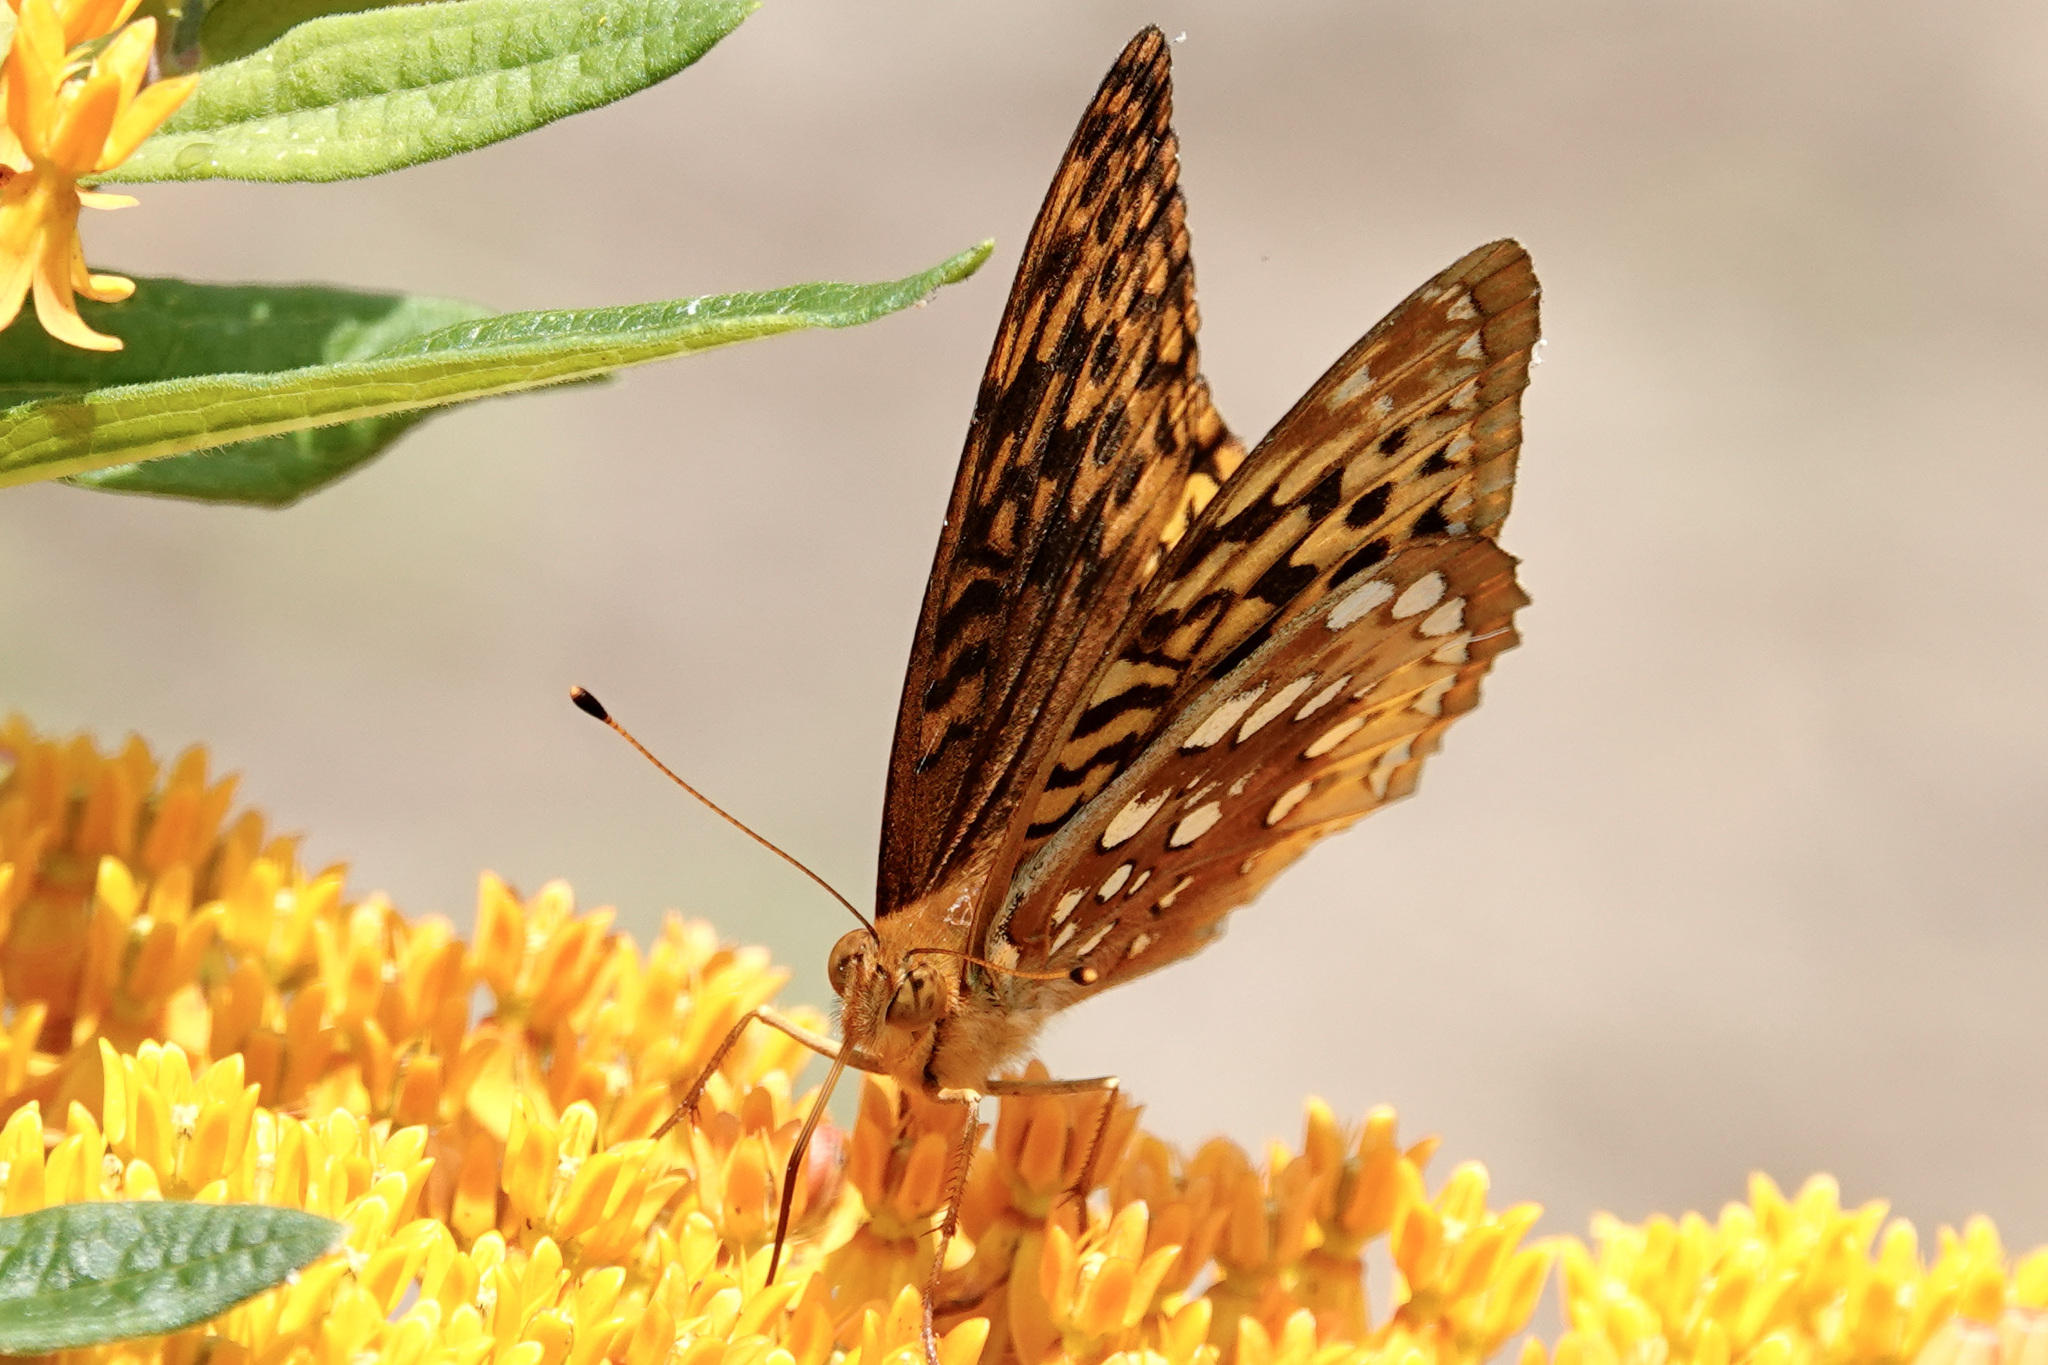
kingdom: Animalia
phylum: Arthropoda
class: Insecta
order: Lepidoptera
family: Nymphalidae
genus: Speyeria
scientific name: Speyeria cybele
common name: Great spangled fritillary
